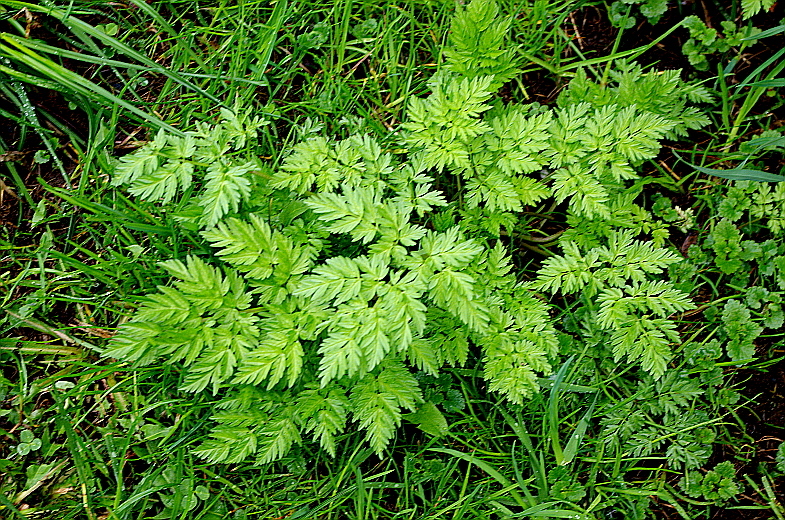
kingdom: Plantae
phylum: Tracheophyta
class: Magnoliopsida
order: Apiales
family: Apiaceae
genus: Anthriscus
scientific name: Anthriscus sylvestris
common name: Cow parsley
